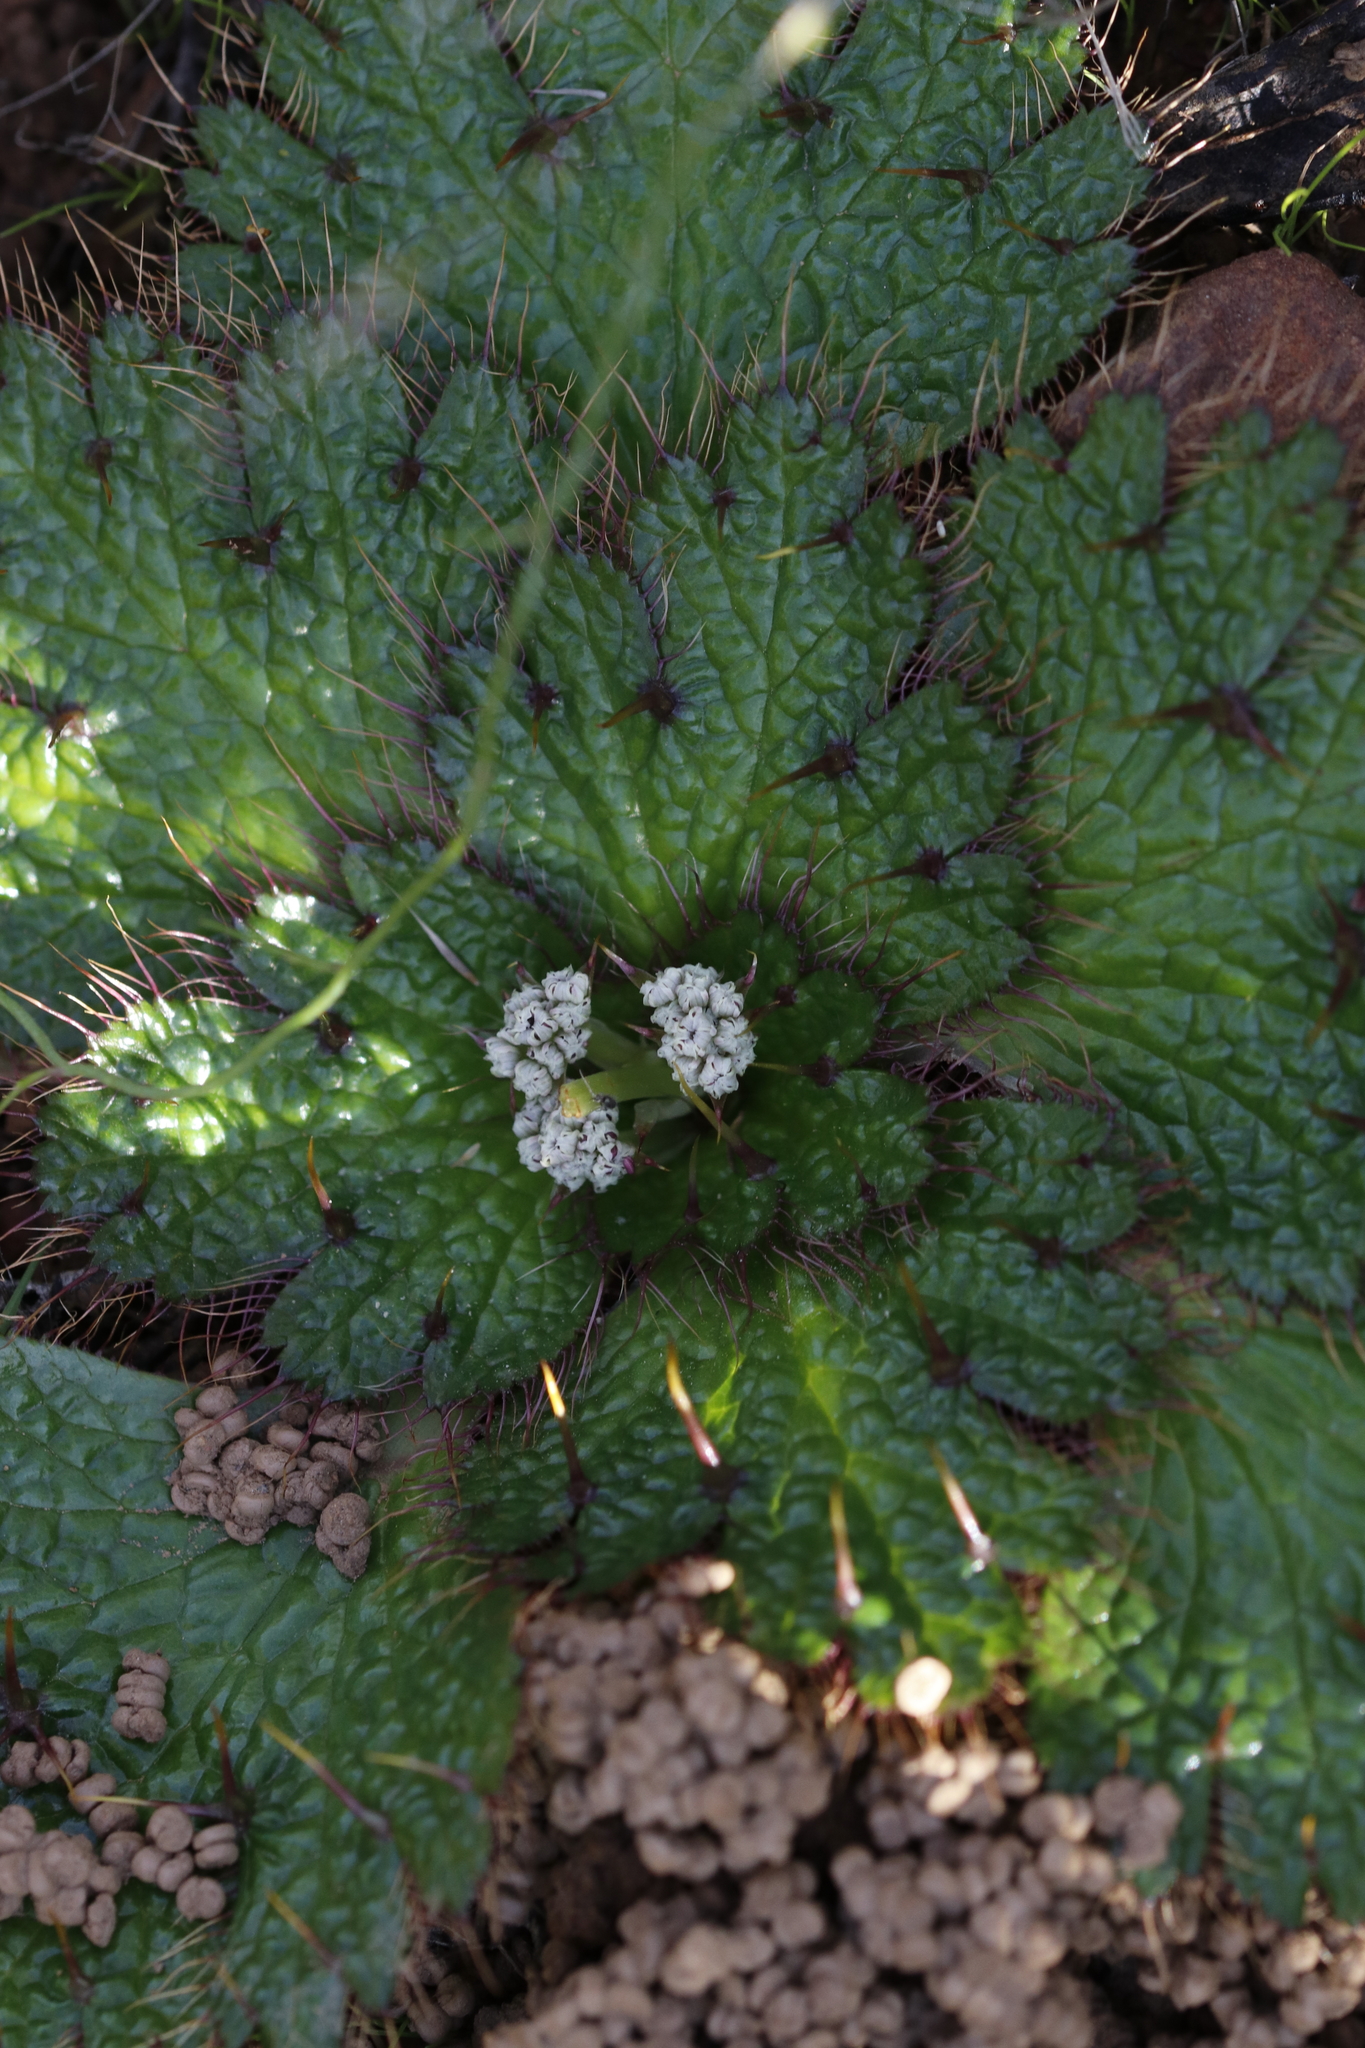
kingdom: Plantae
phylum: Tracheophyta
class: Magnoliopsida
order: Apiales
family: Apiaceae
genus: Arctopus
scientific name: Arctopus echinatus
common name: Platdoring
